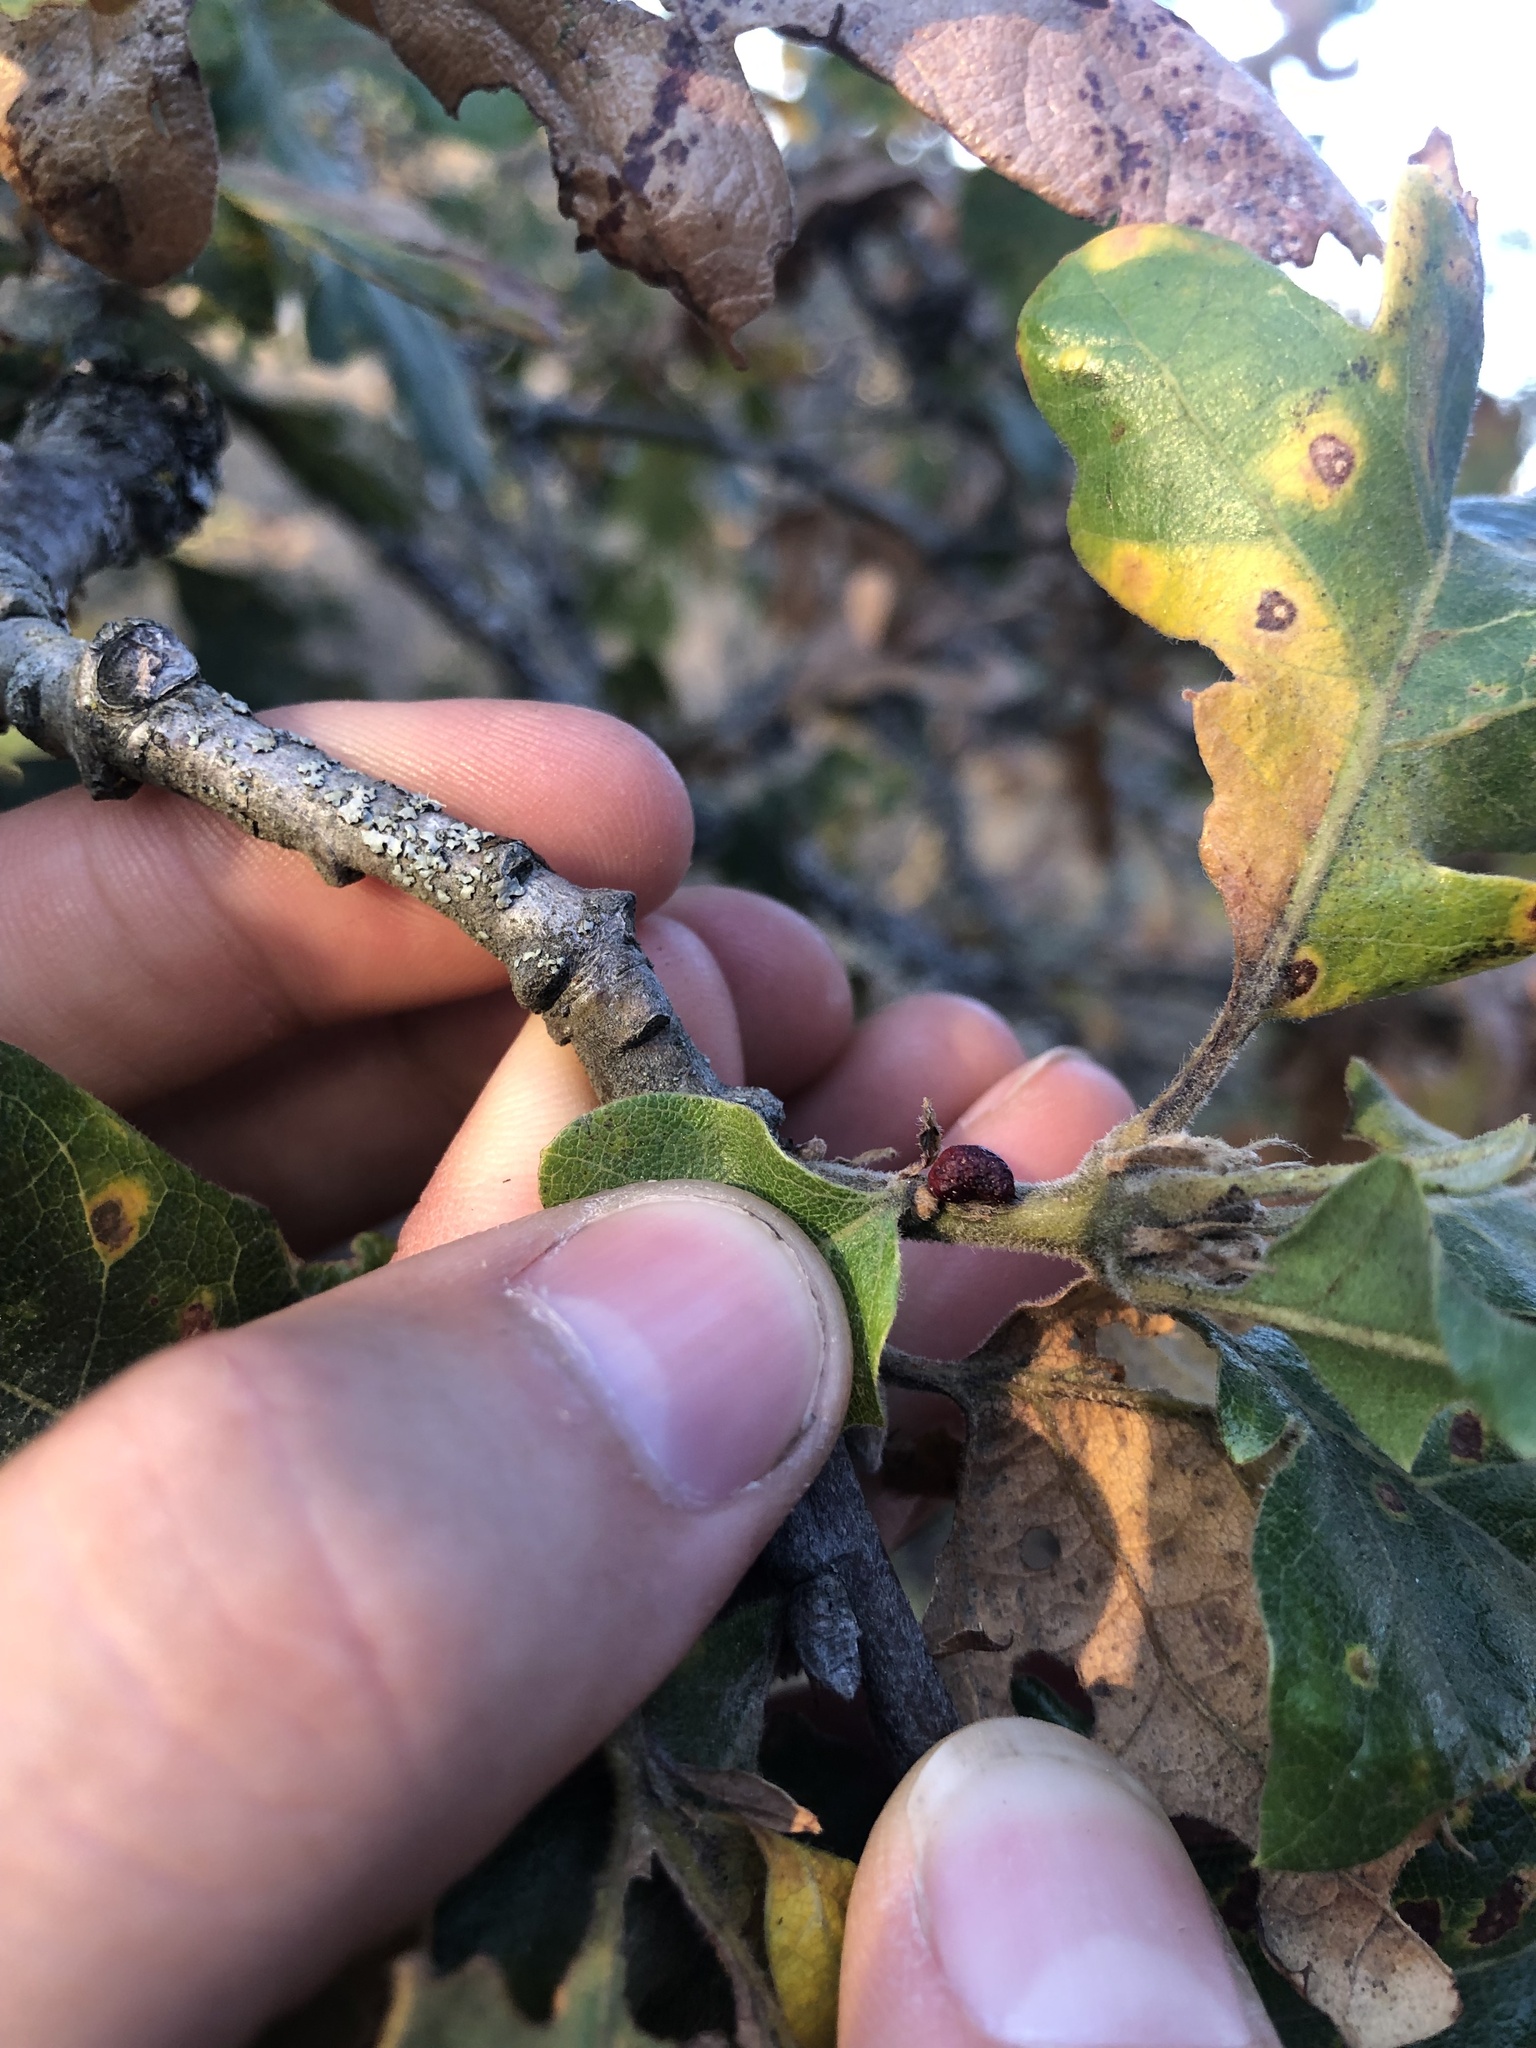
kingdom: Animalia
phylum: Arthropoda
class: Insecta
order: Hymenoptera
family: Cynipidae
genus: Disholcaspis
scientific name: Disholcaspis
